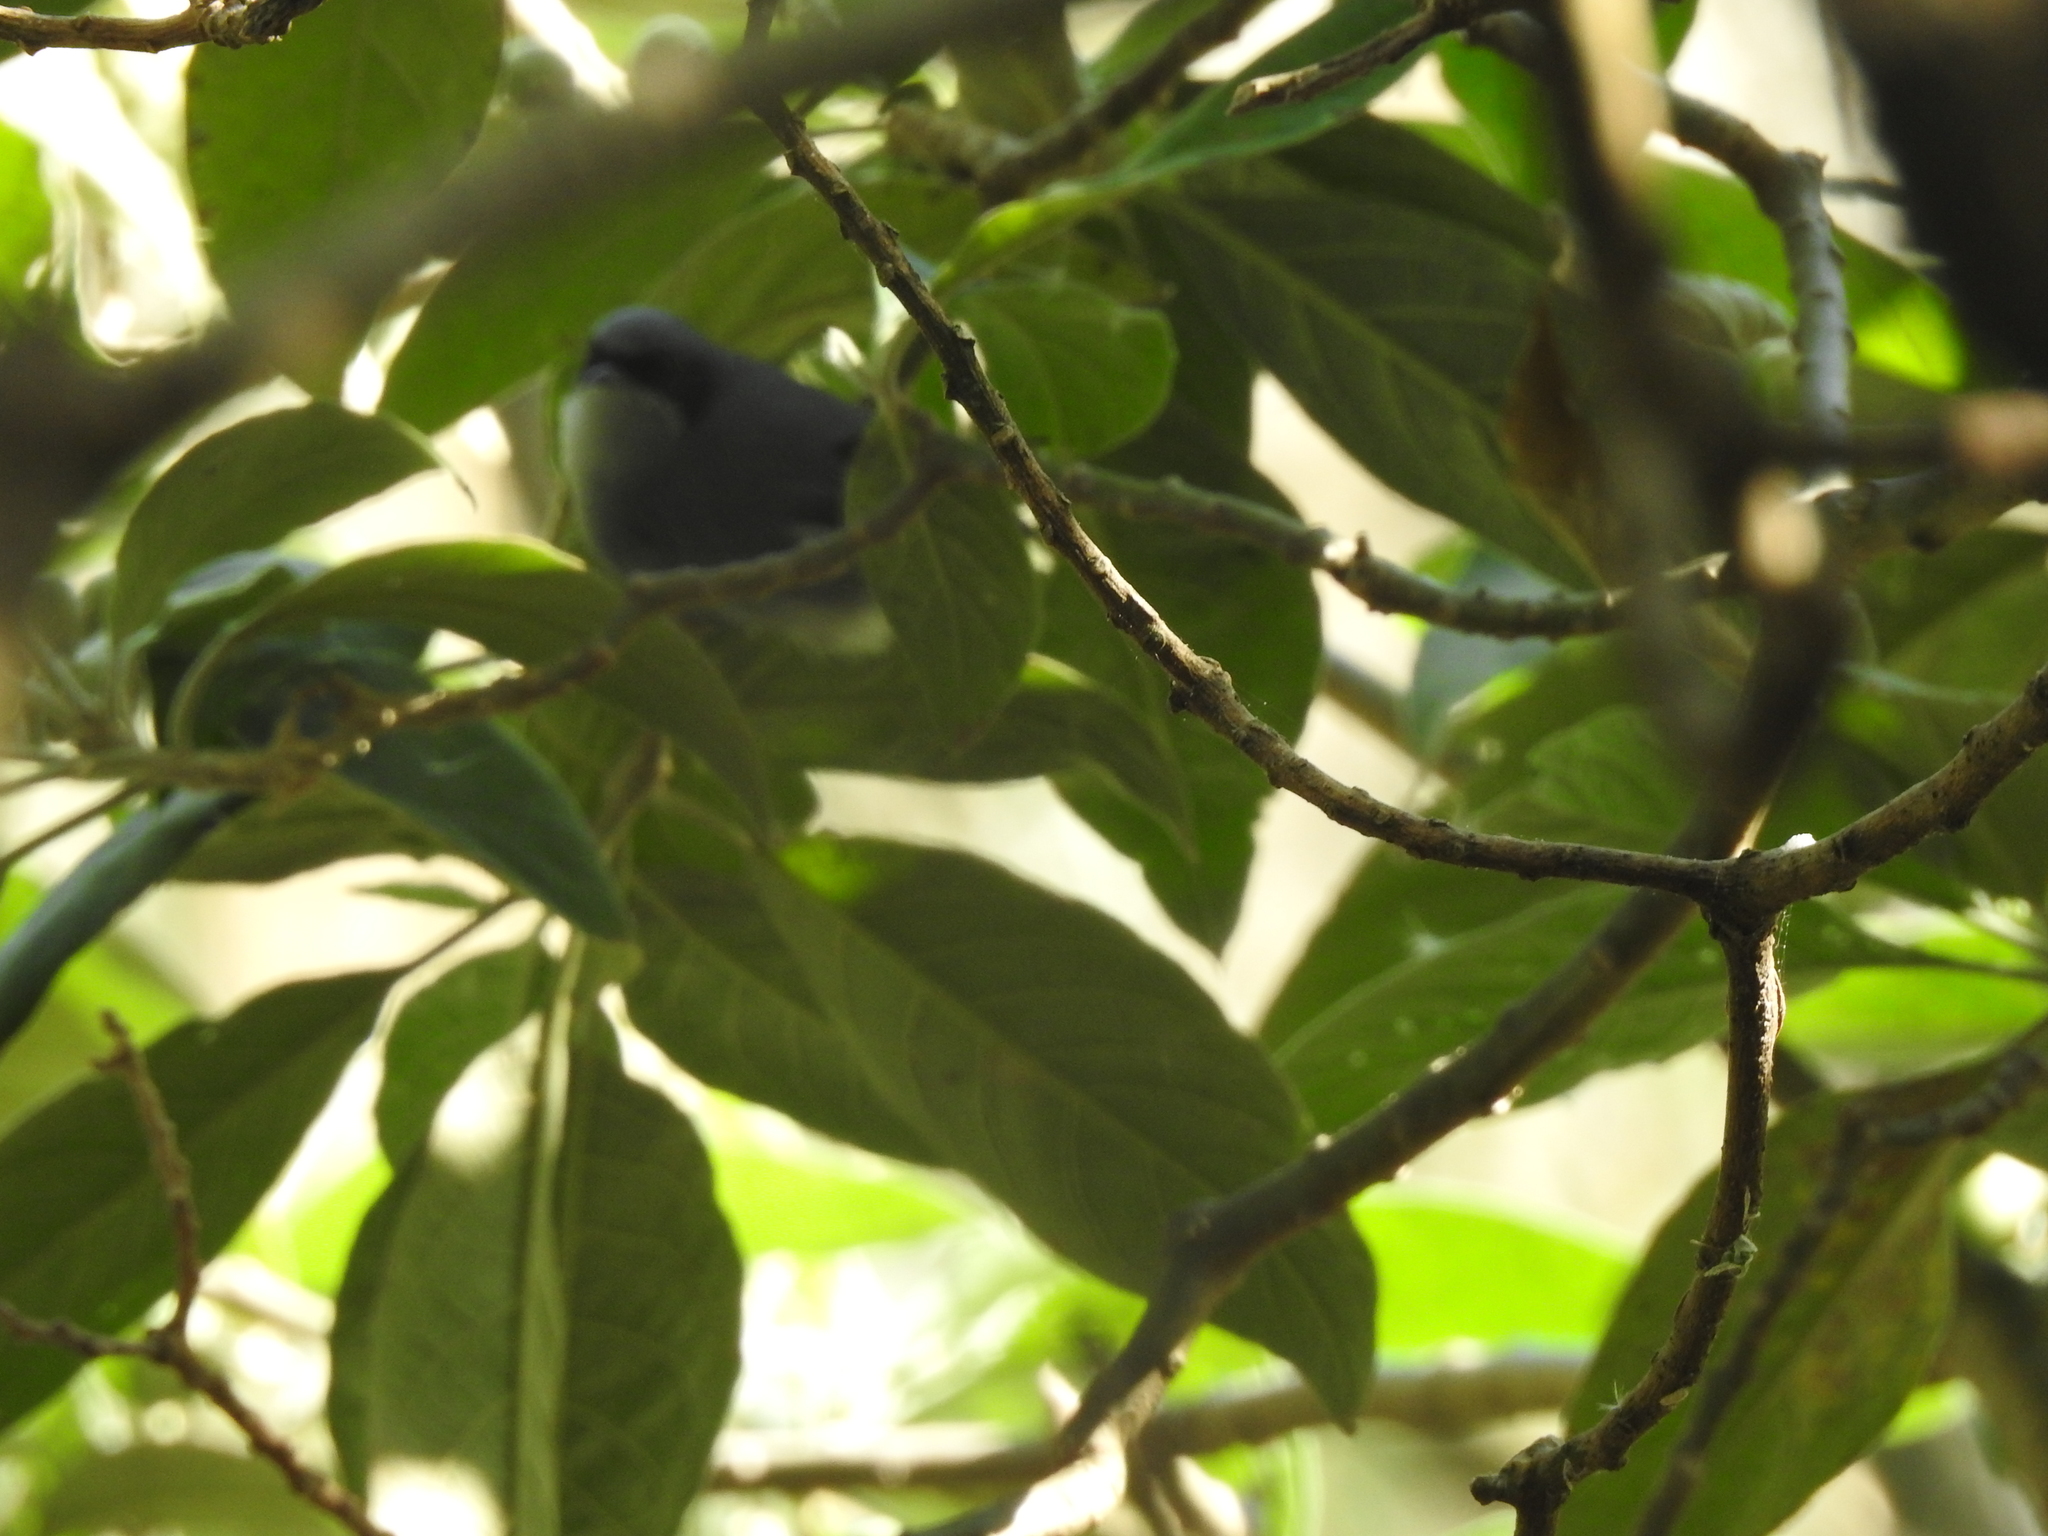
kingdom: Animalia
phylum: Chordata
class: Aves
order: Passeriformes
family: Polioptilidae
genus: Polioptila
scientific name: Polioptila dumicola
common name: Masked gnatcatcher
